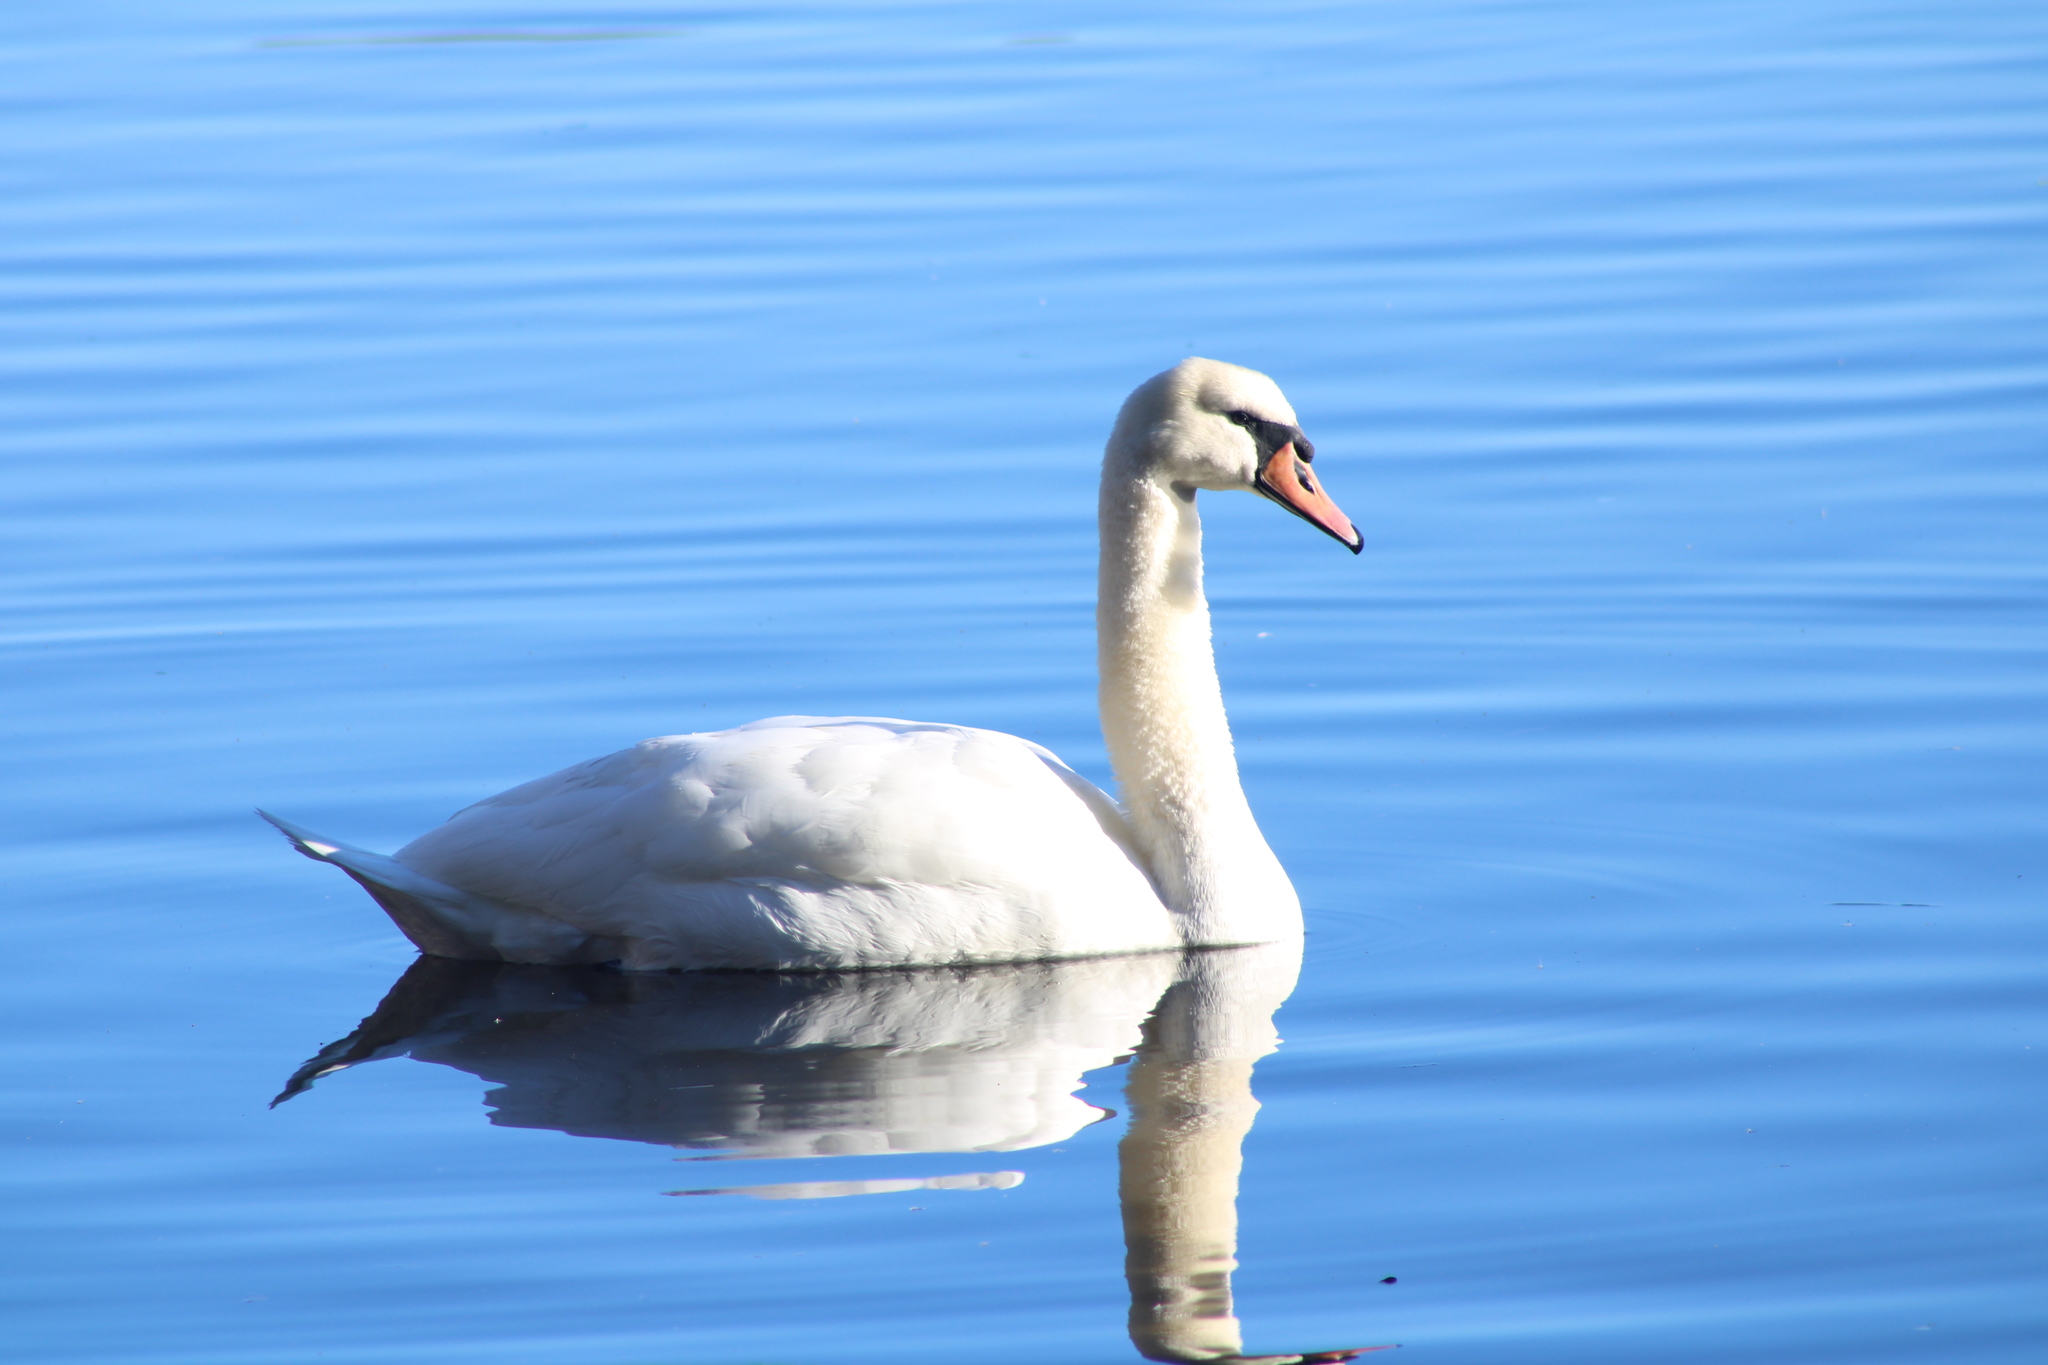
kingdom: Animalia
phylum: Chordata
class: Aves
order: Anseriformes
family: Anatidae
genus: Cygnus
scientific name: Cygnus olor
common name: Mute swan
